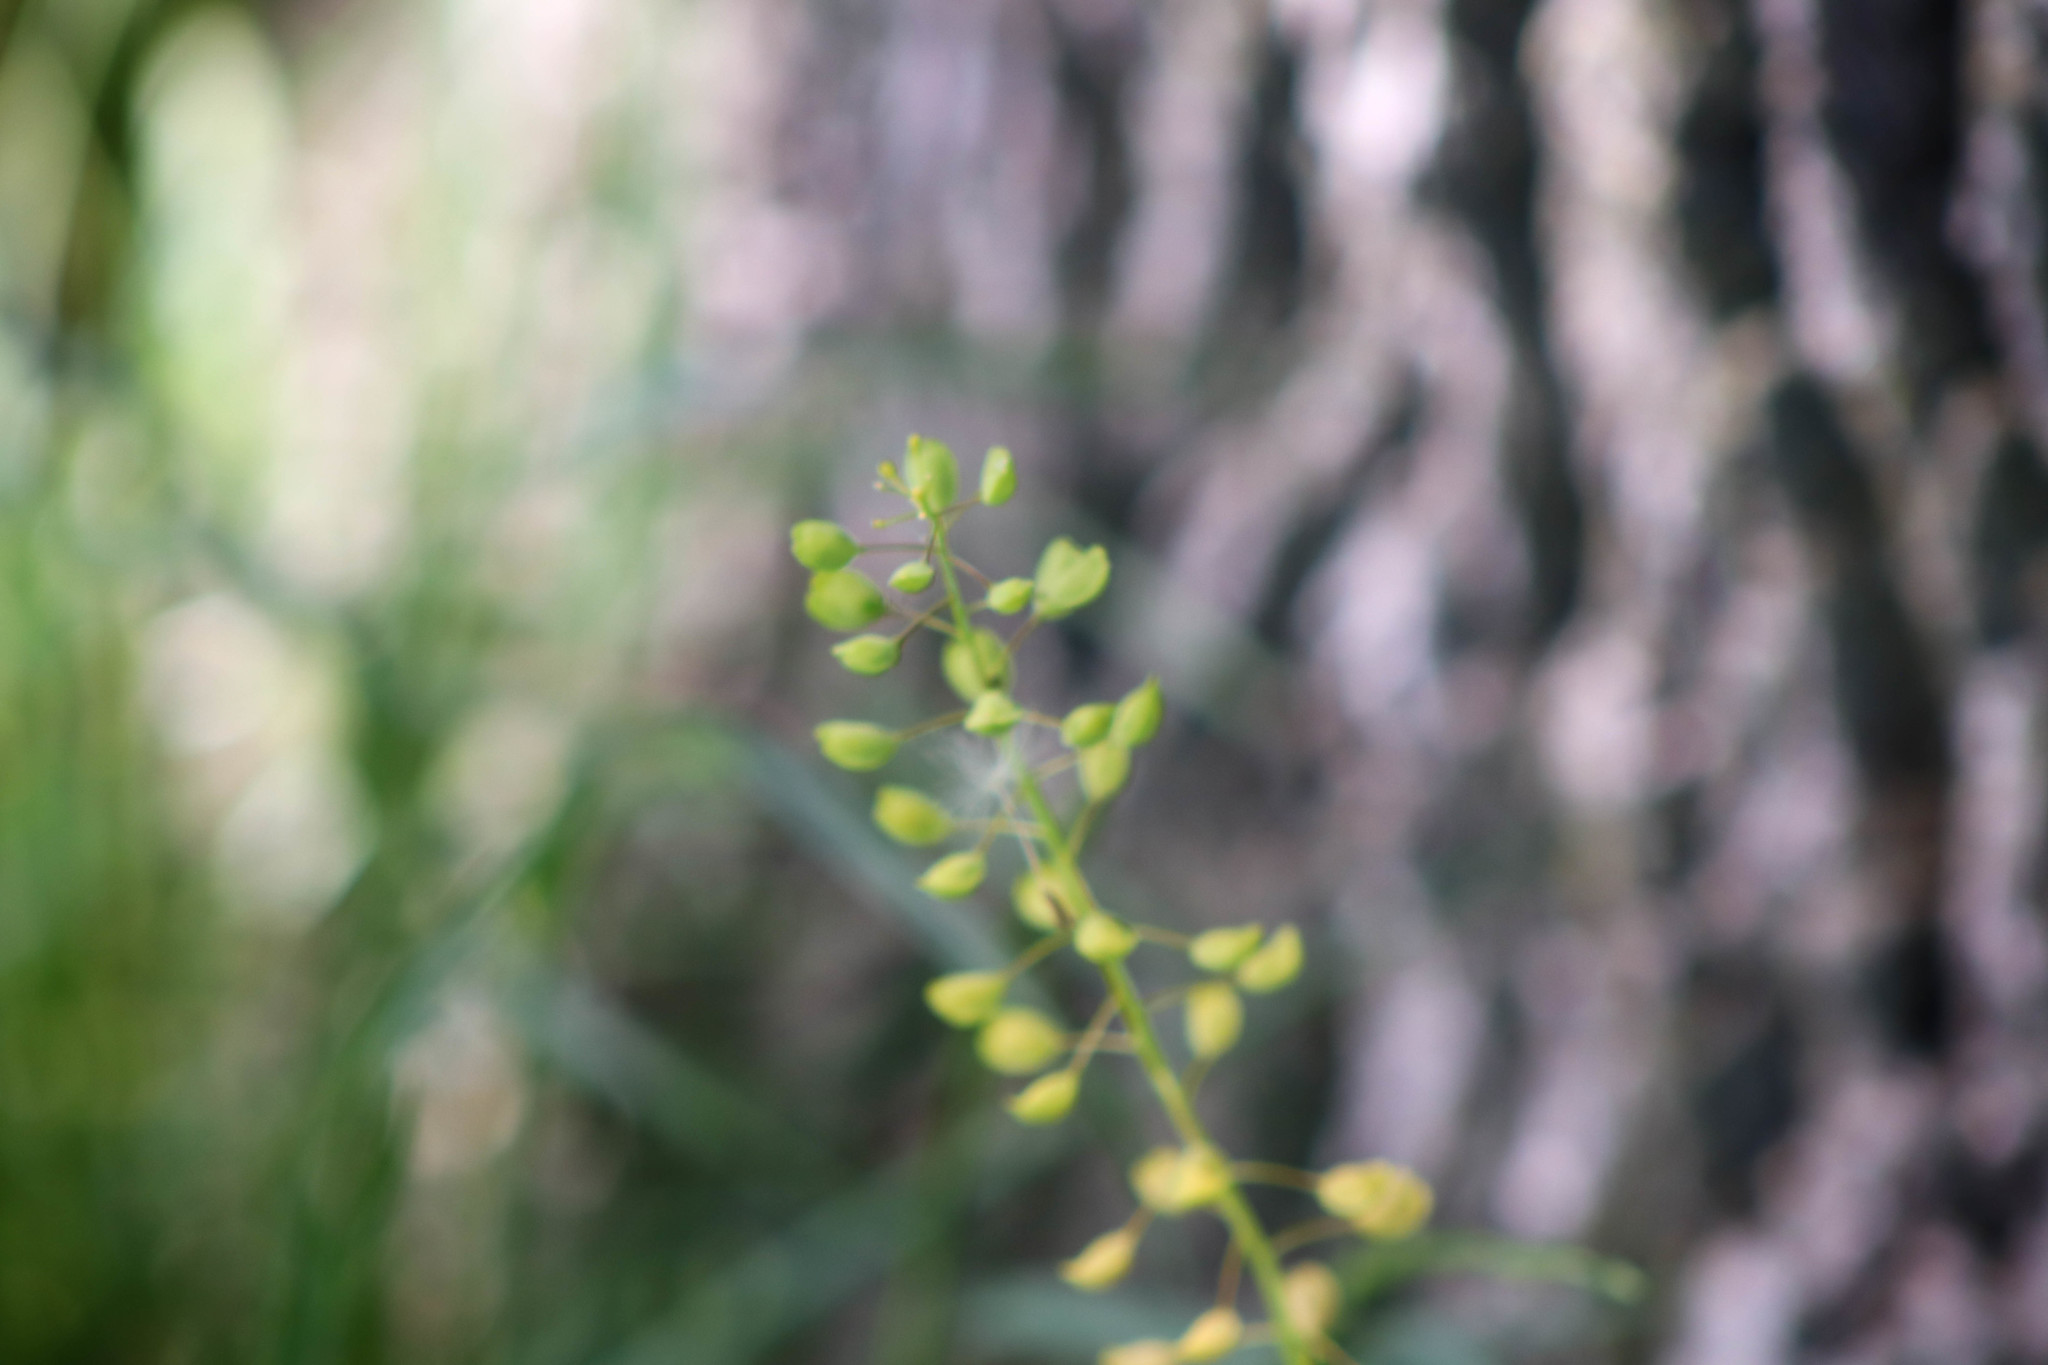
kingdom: Plantae
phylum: Tracheophyta
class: Magnoliopsida
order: Brassicales
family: Brassicaceae
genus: Mummenhoffia
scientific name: Mummenhoffia alliacea
